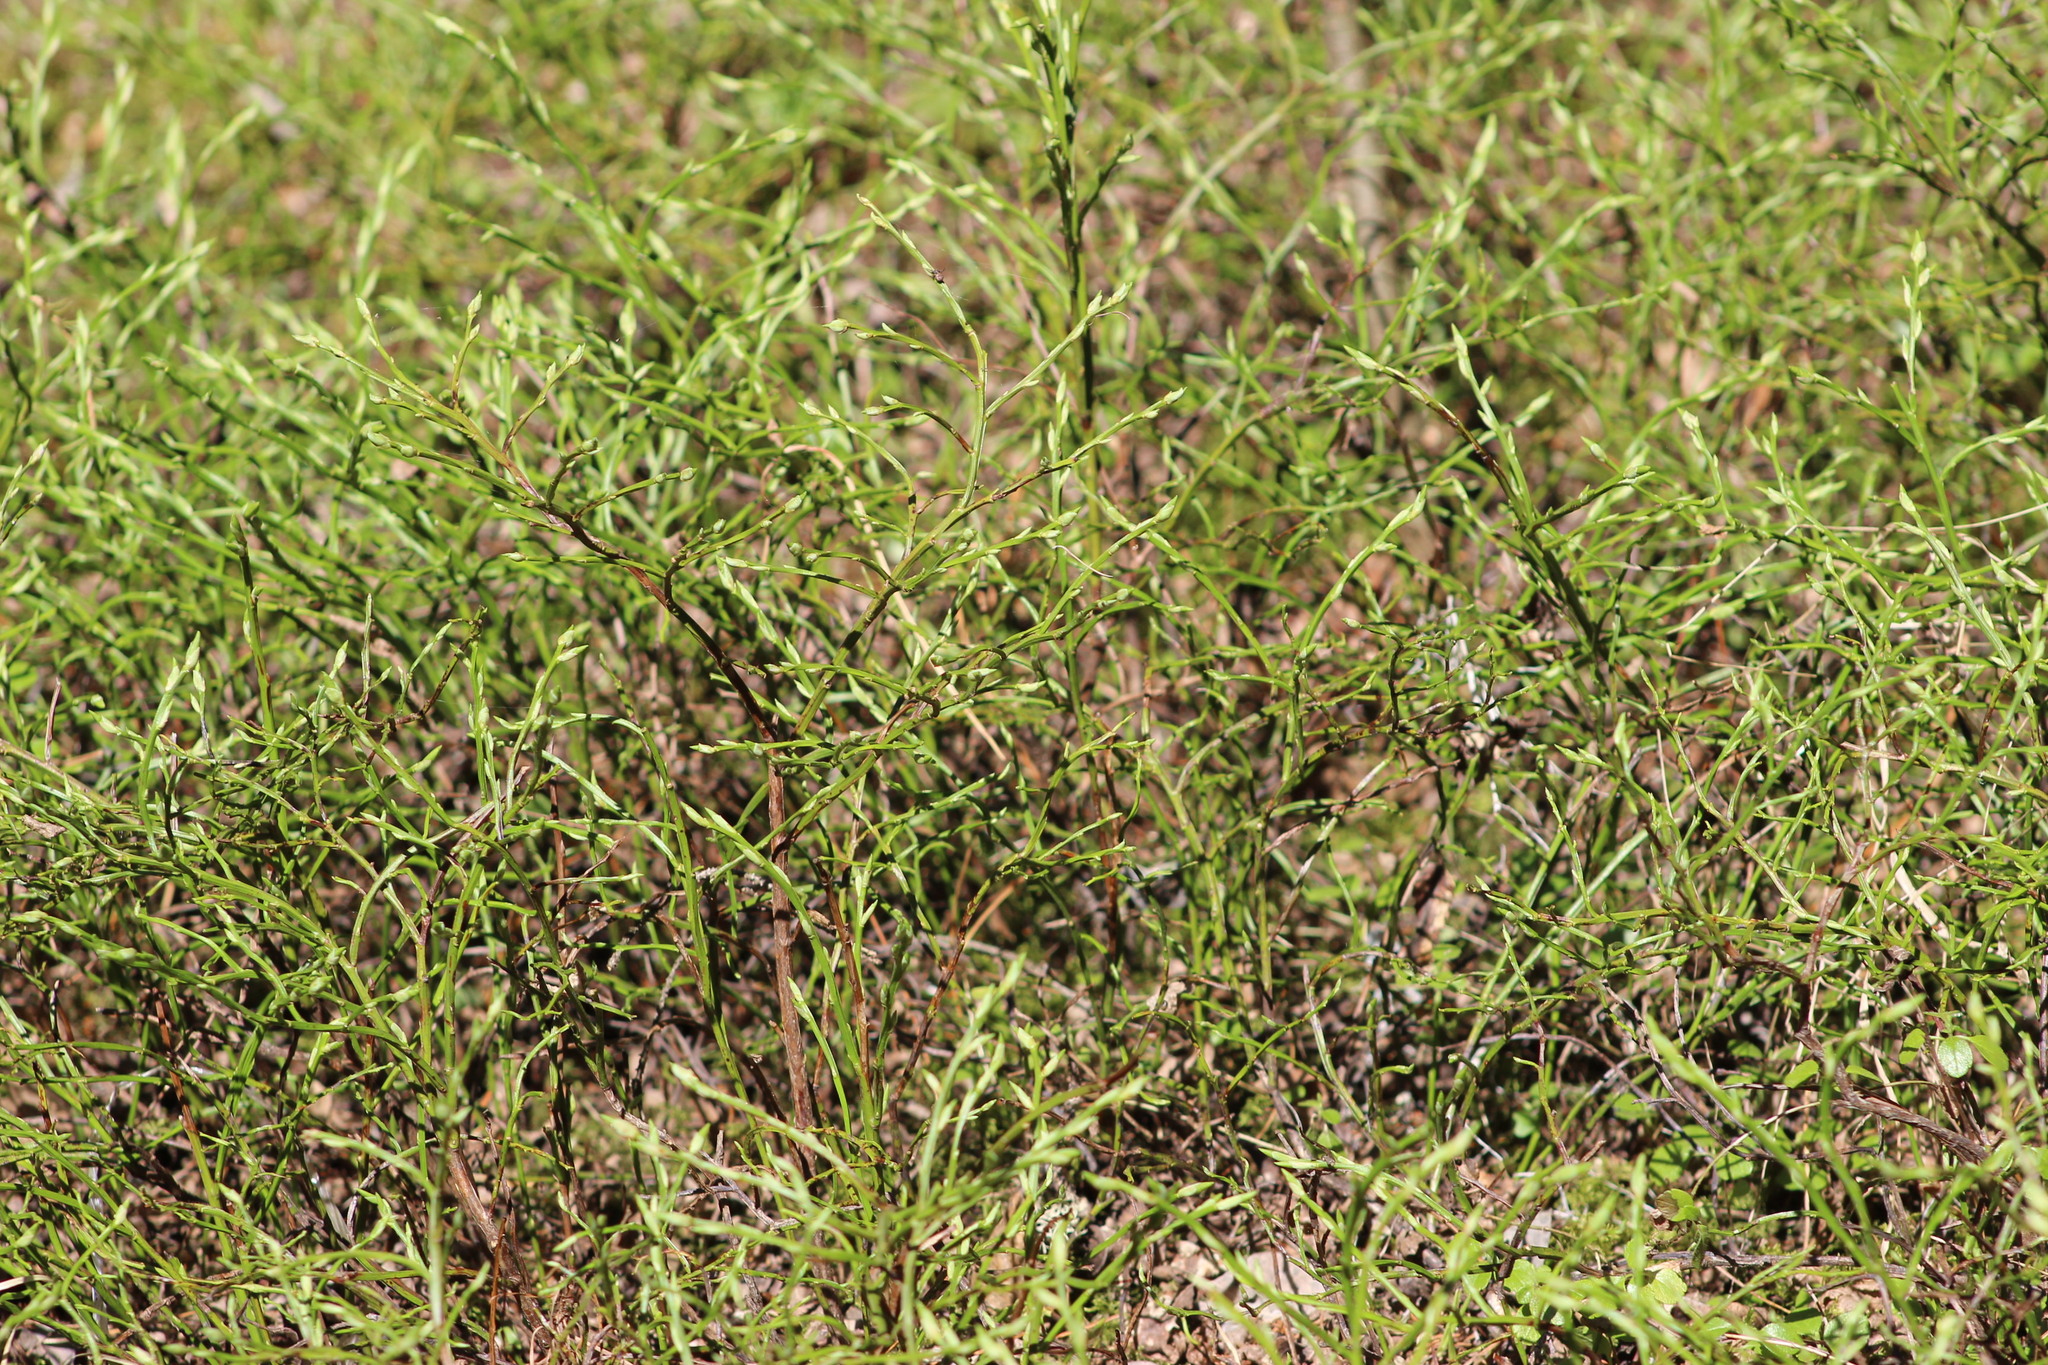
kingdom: Plantae
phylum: Tracheophyta
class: Magnoliopsida
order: Ericales
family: Ericaceae
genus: Vaccinium
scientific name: Vaccinium myrtillus
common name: Bilberry
